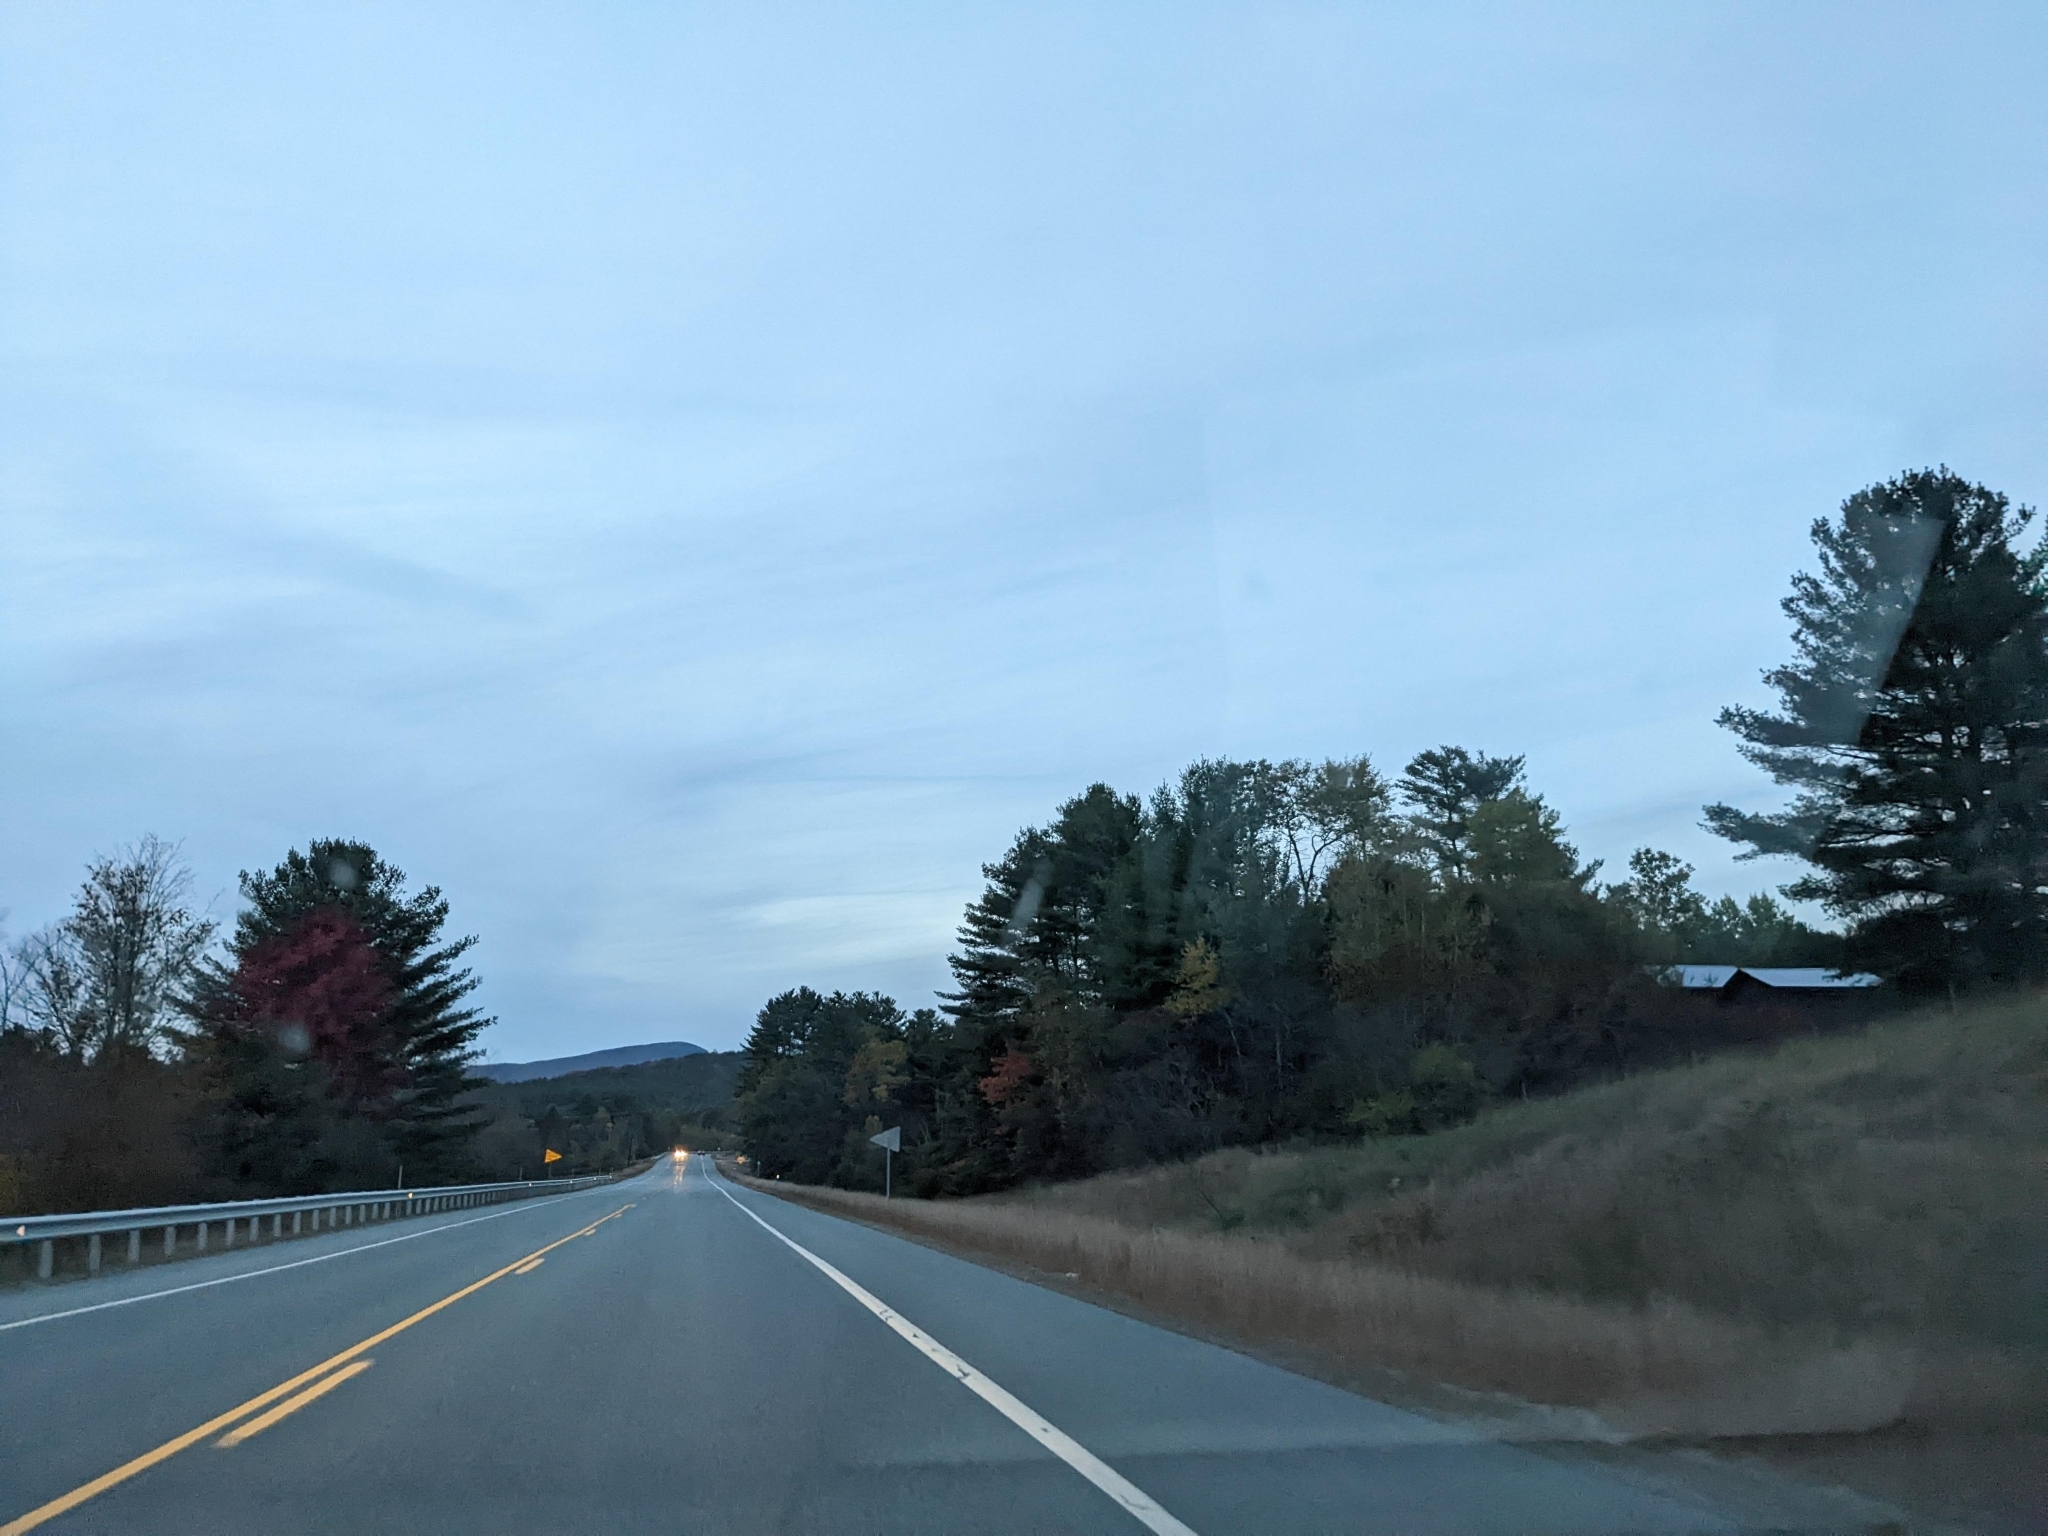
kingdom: Plantae
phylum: Tracheophyta
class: Pinopsida
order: Pinales
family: Pinaceae
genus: Pinus
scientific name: Pinus strobus
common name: Weymouth pine
